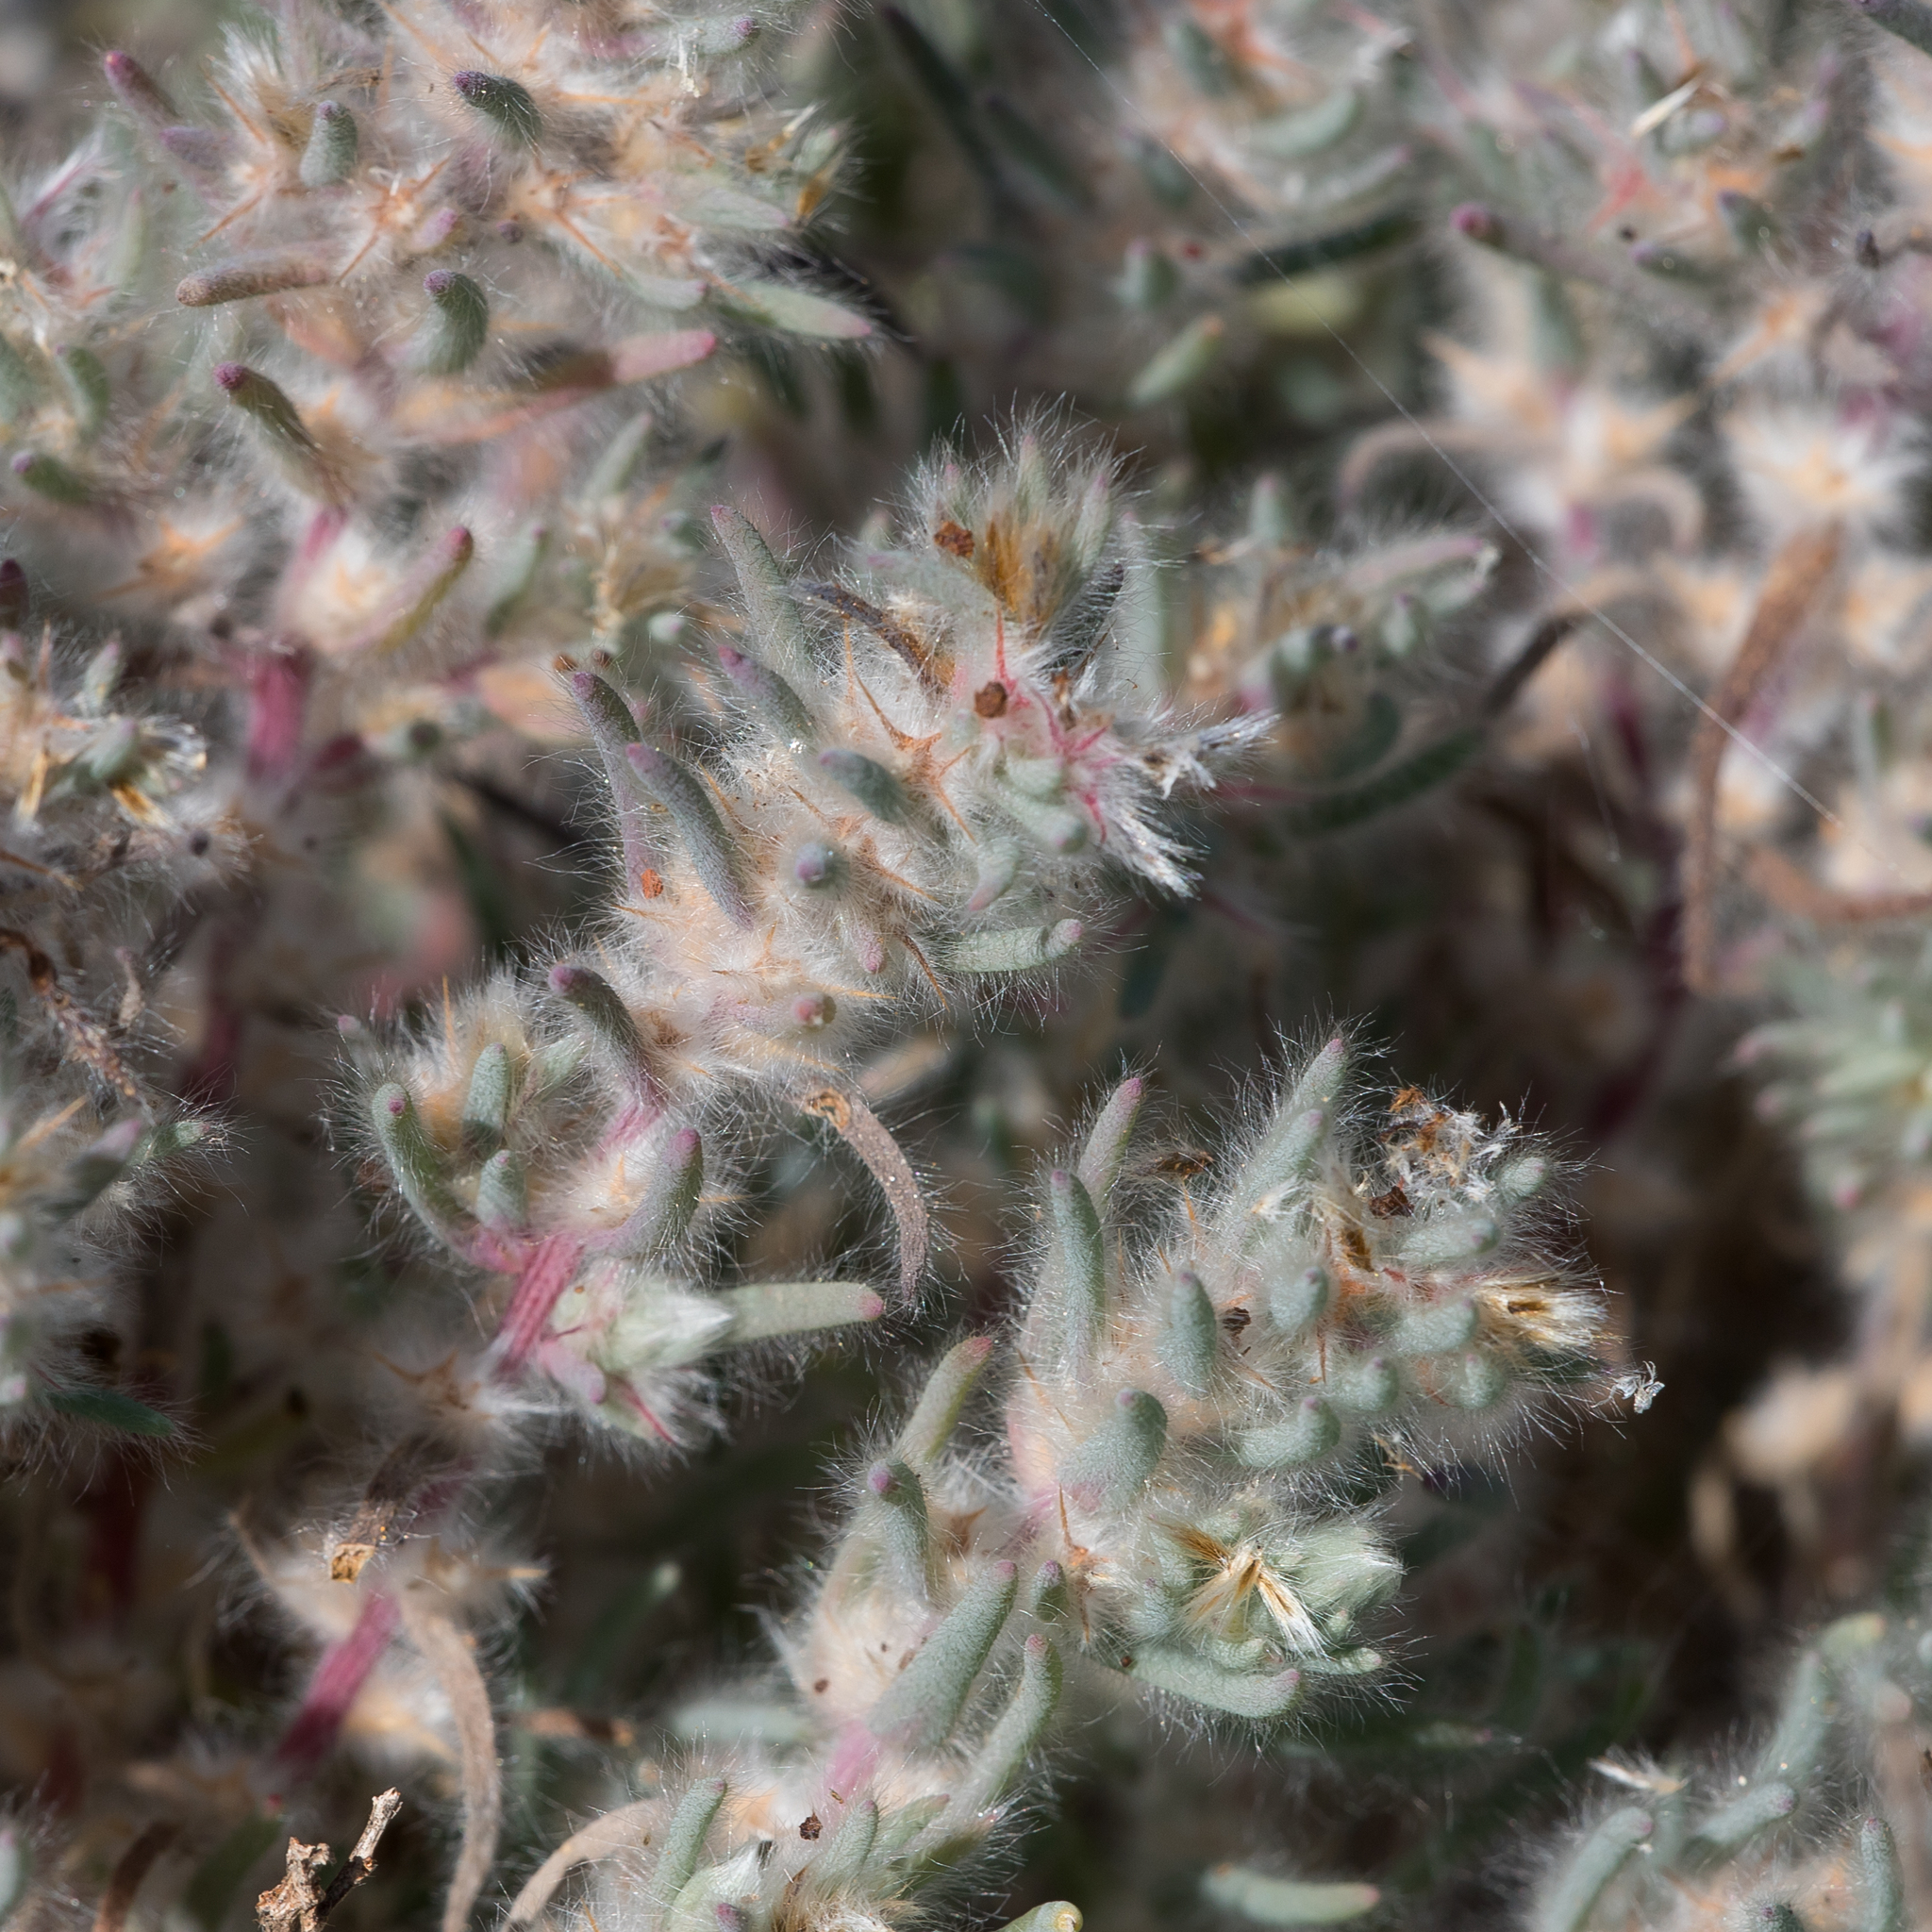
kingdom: Plantae
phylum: Tracheophyta
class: Magnoliopsida
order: Caryophyllales
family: Amaranthaceae
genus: Sclerolaena
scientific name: Sclerolaena lanicuspis
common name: Copperbur
